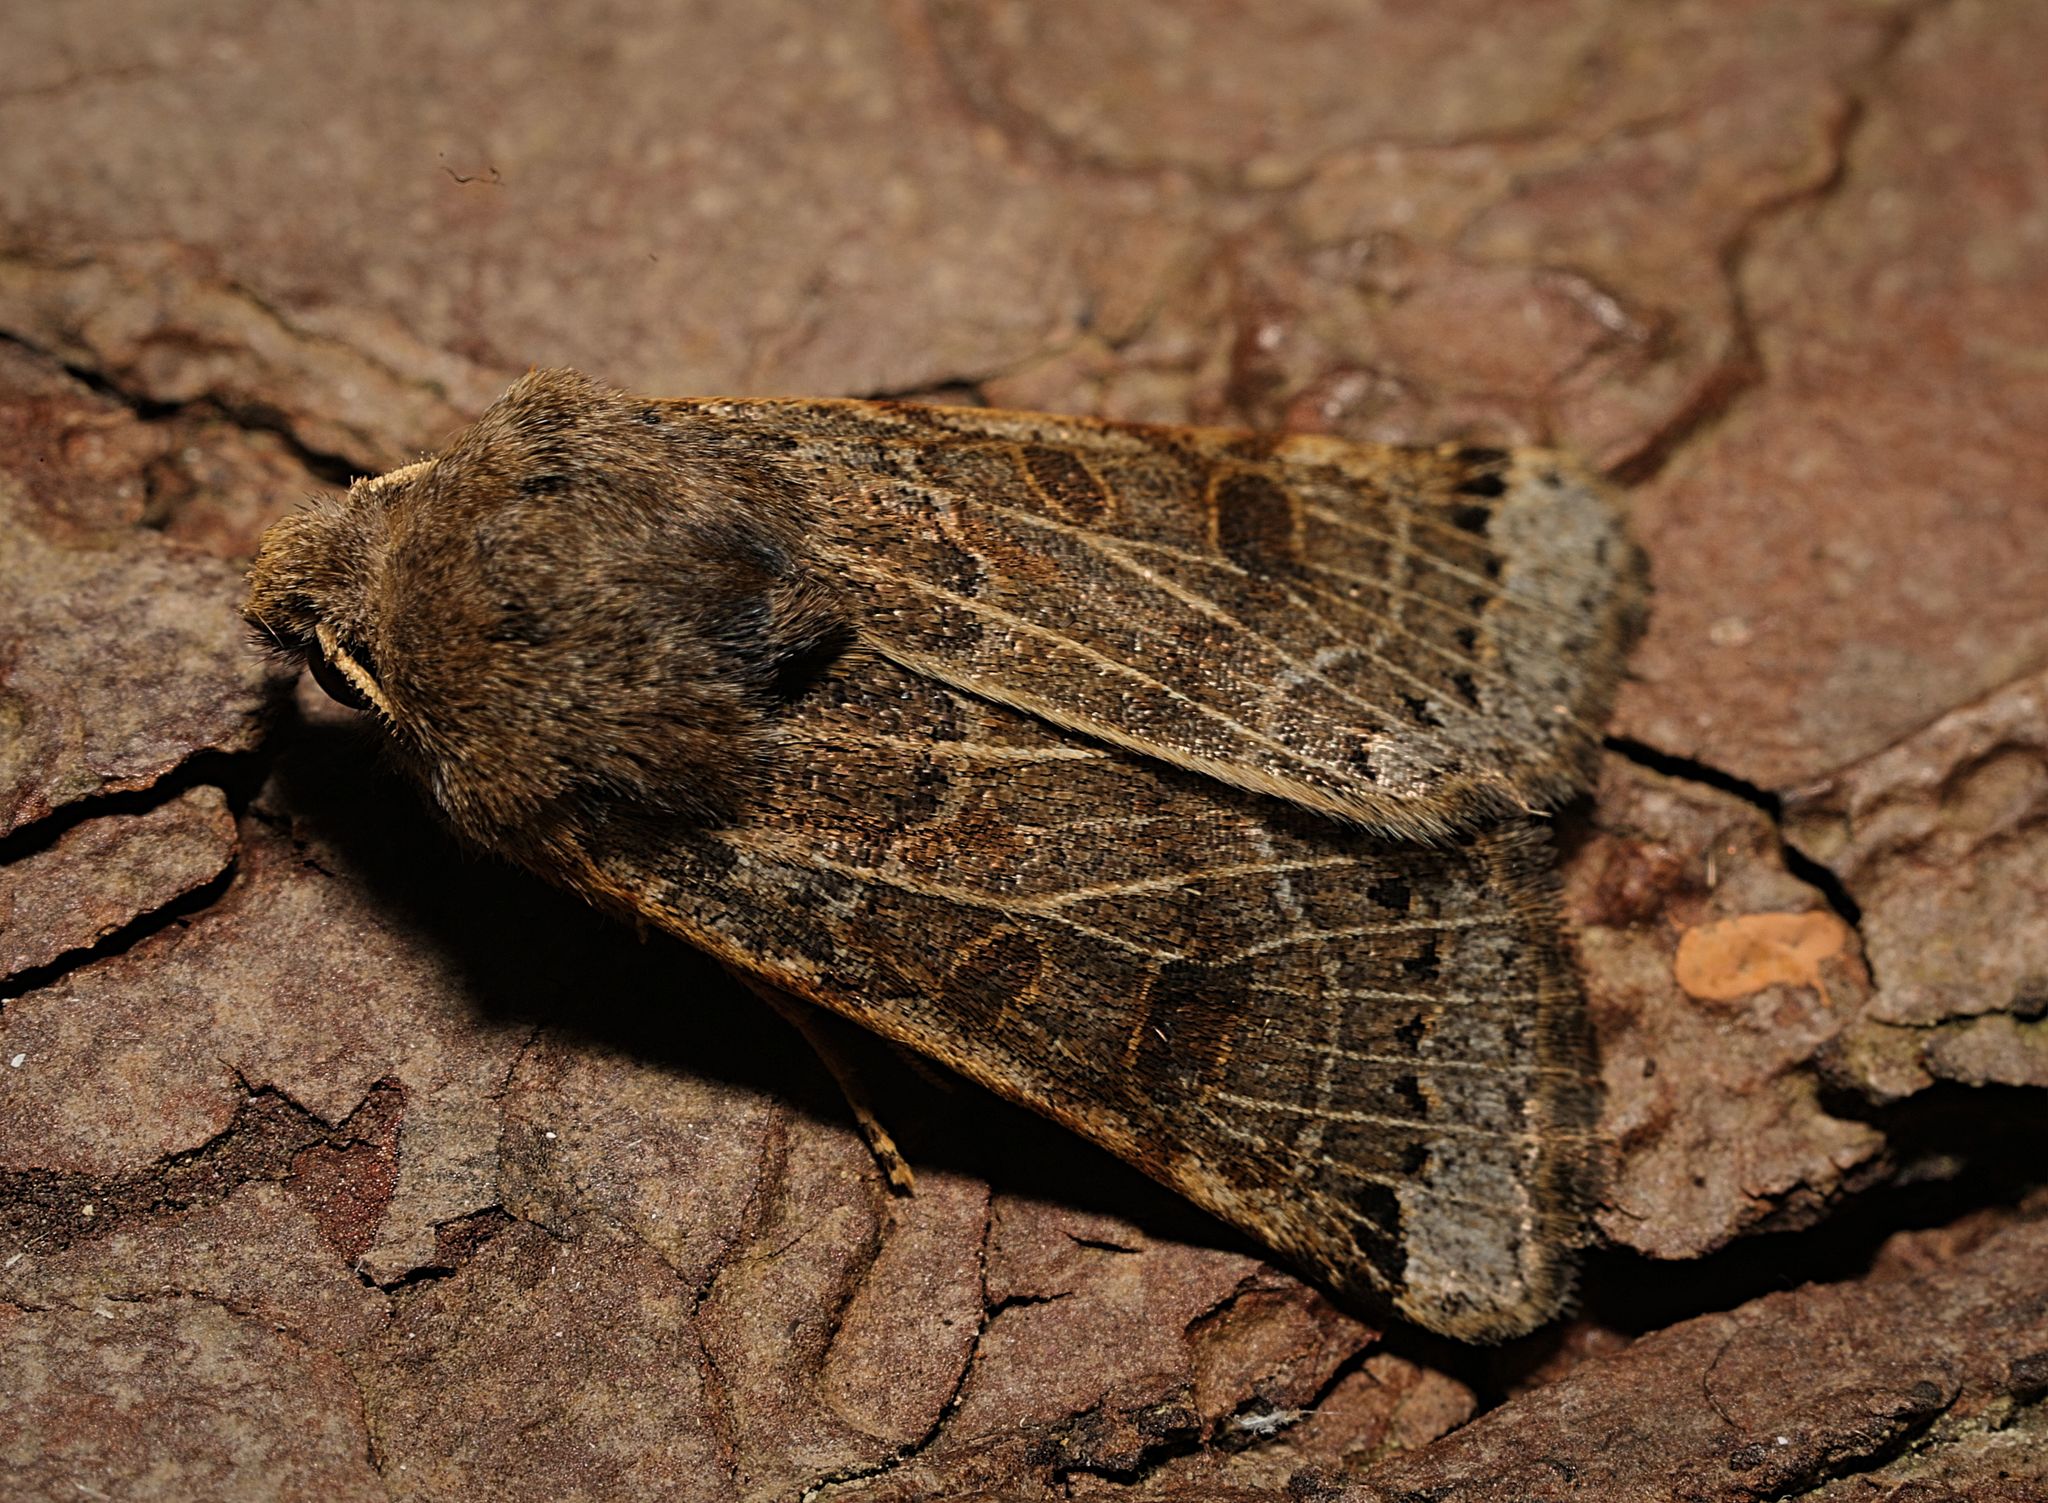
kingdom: Animalia
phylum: Arthropoda
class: Insecta
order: Lepidoptera
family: Noctuidae
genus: Agrochola
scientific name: Agrochola lunosa
